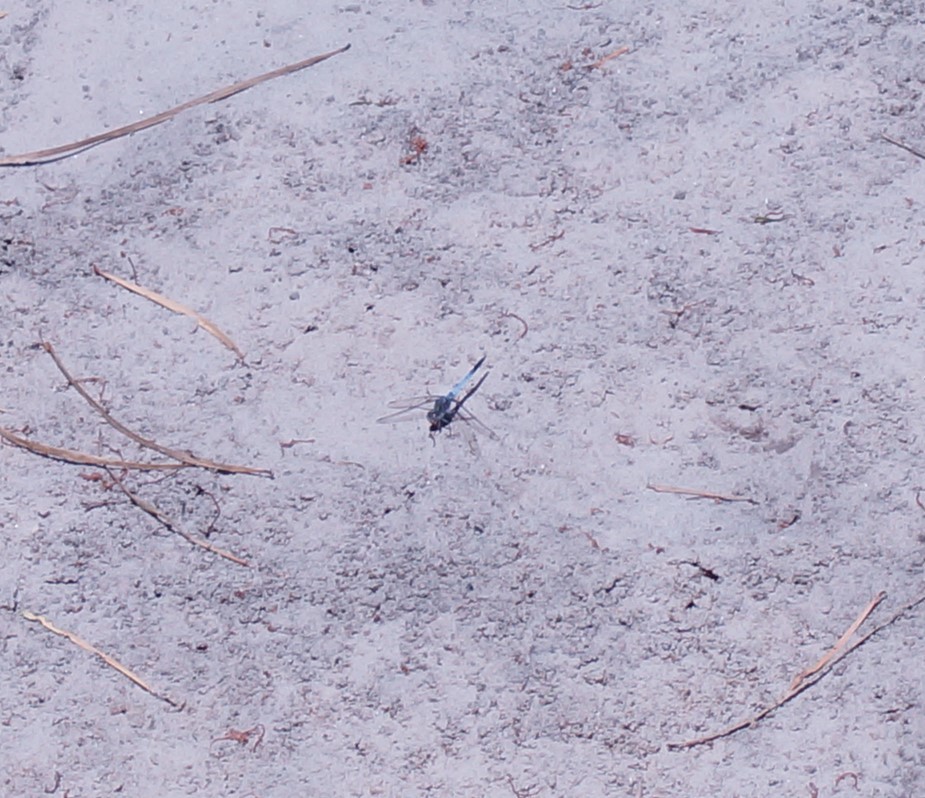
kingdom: Animalia
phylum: Arthropoda
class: Insecta
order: Odonata
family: Libellulidae
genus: Orthetrum
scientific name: Orthetrum caledonicum
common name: Blue skimmer
